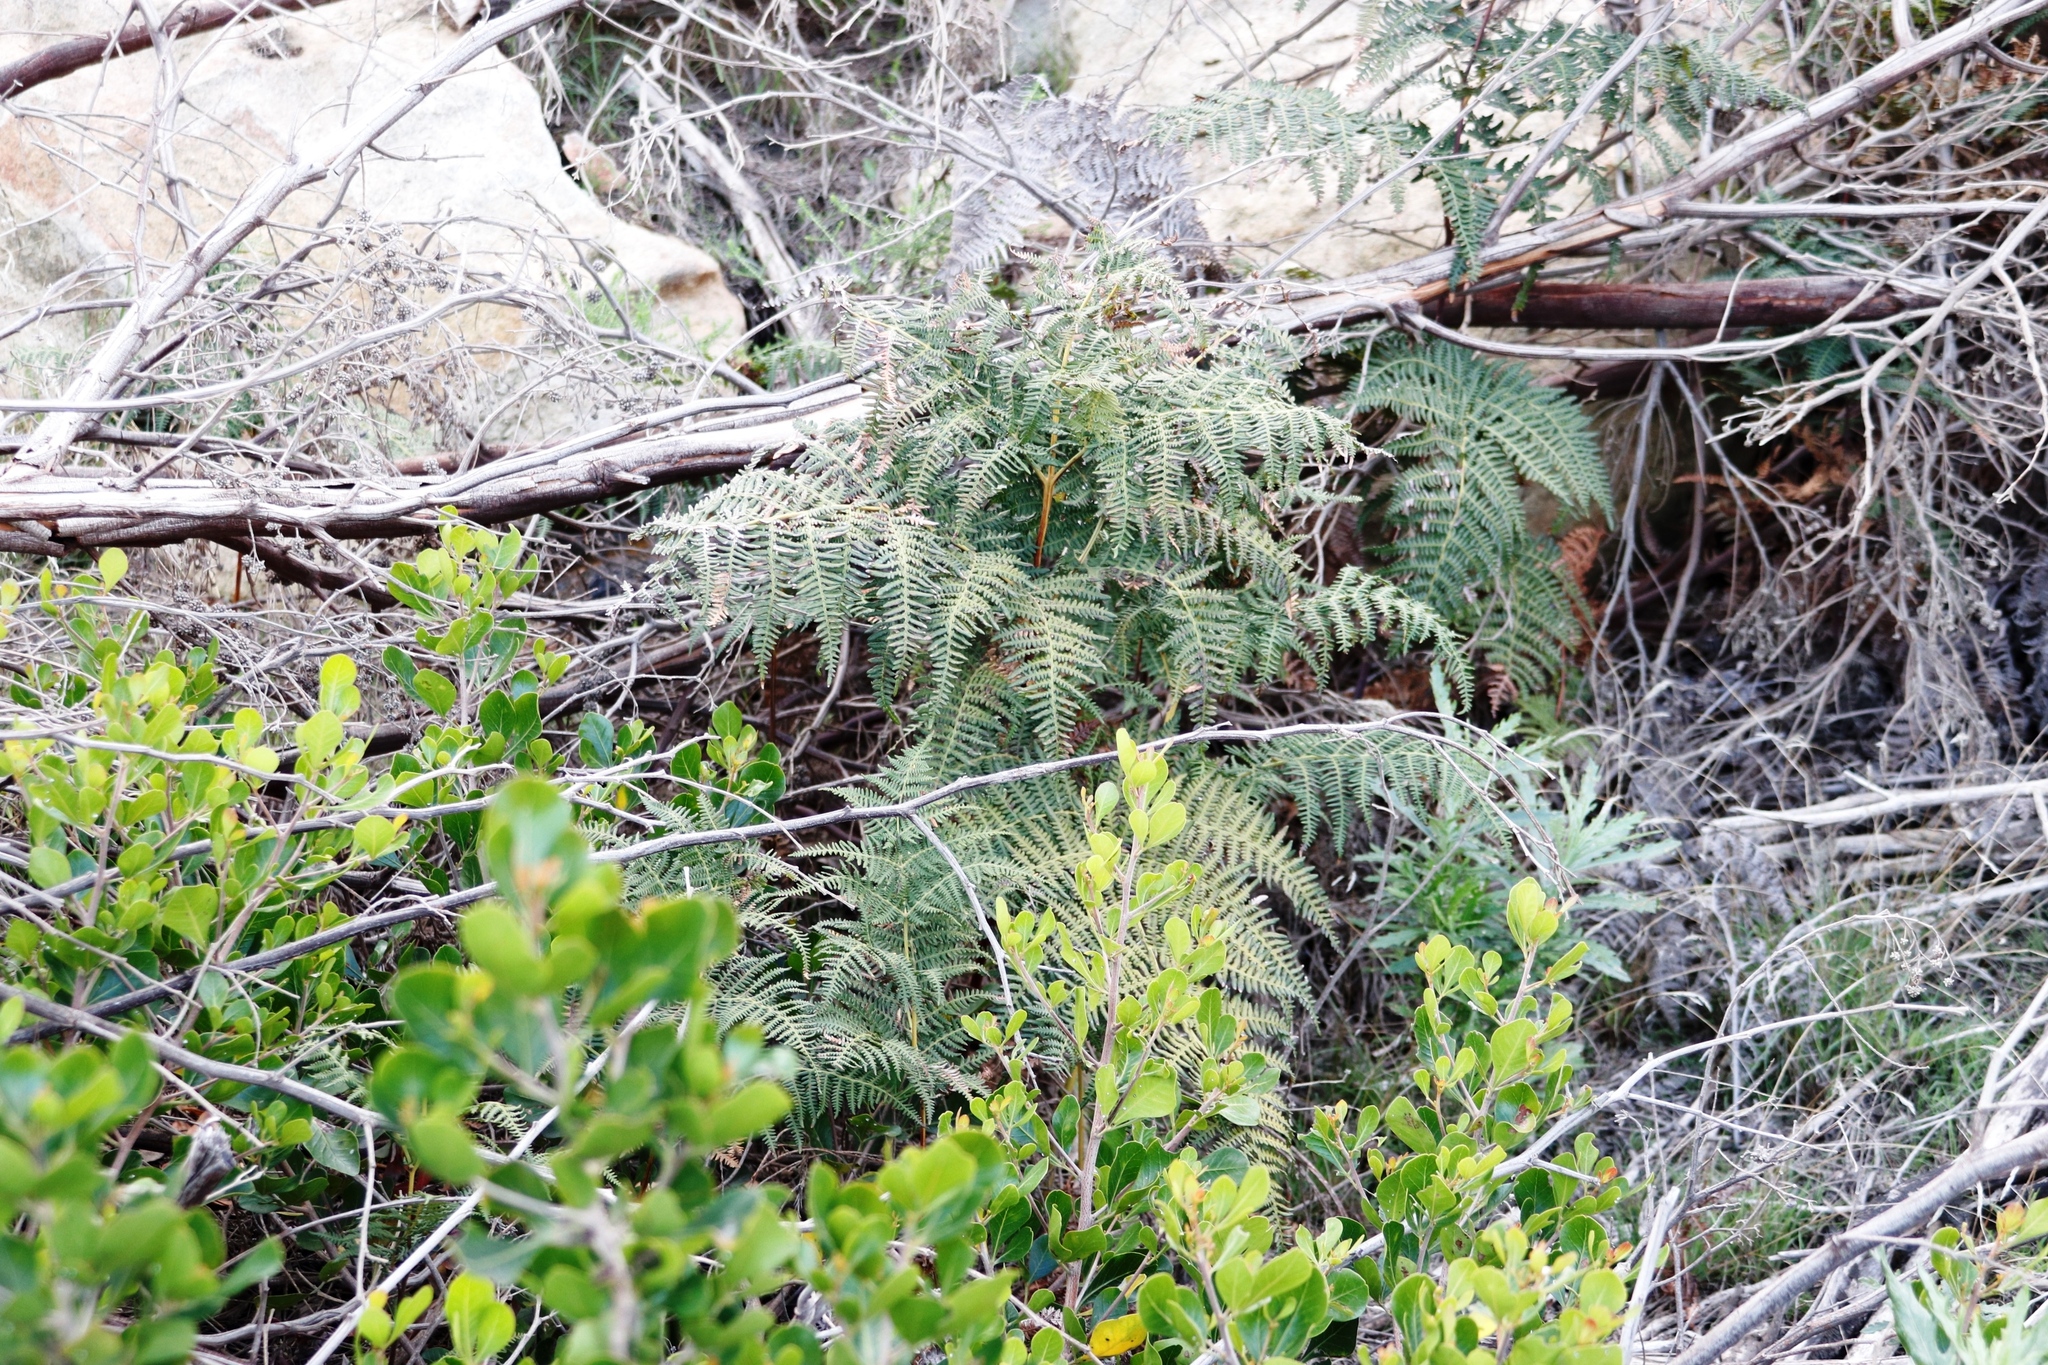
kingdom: Plantae
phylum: Tracheophyta
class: Polypodiopsida
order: Polypodiales
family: Dennstaedtiaceae
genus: Pteridium
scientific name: Pteridium aquilinum
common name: Bracken
